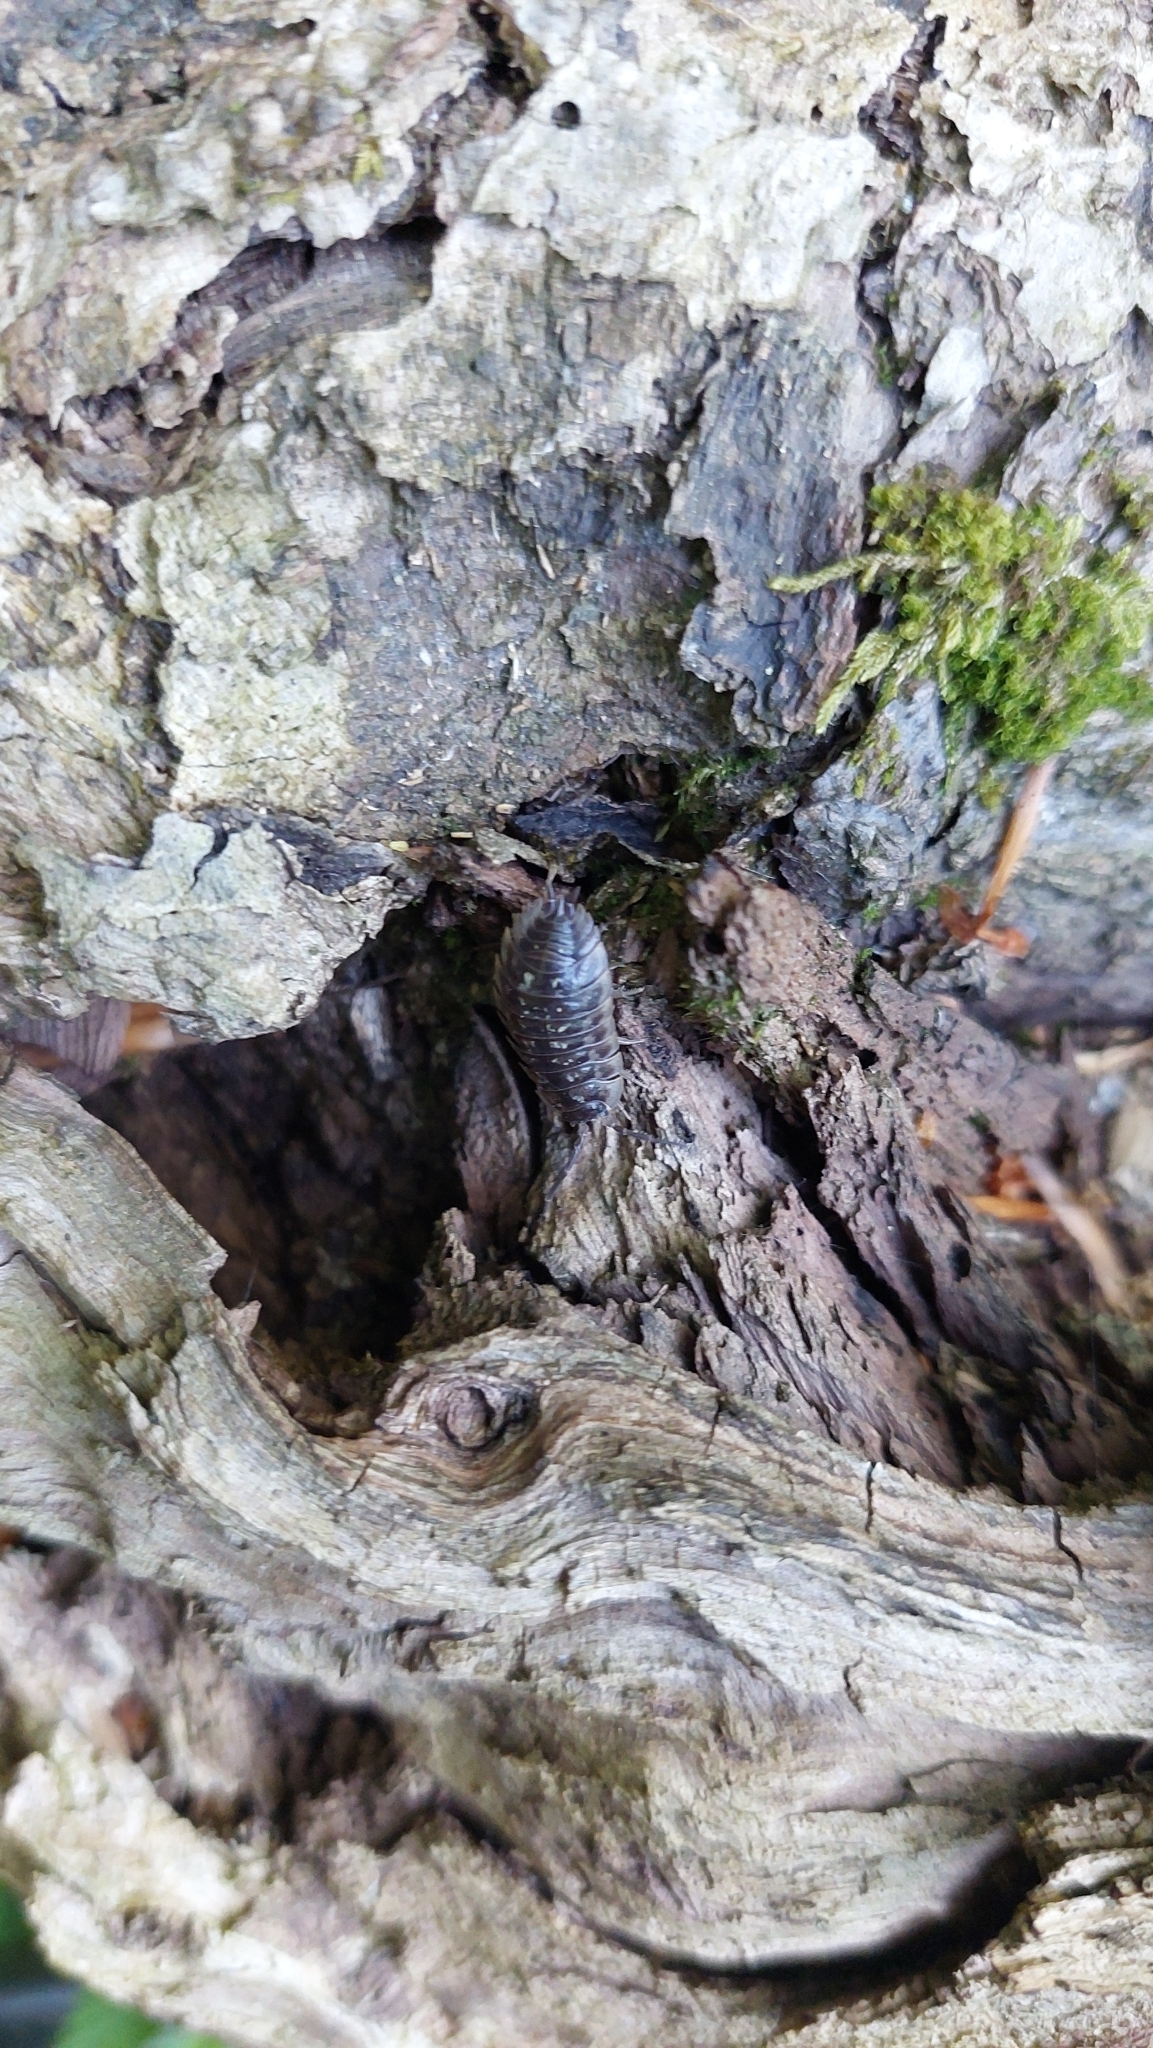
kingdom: Animalia
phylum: Arthropoda
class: Malacostraca
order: Isopoda
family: Oniscidae
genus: Oniscus
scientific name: Oniscus asellus
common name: Common shiny woodlouse
